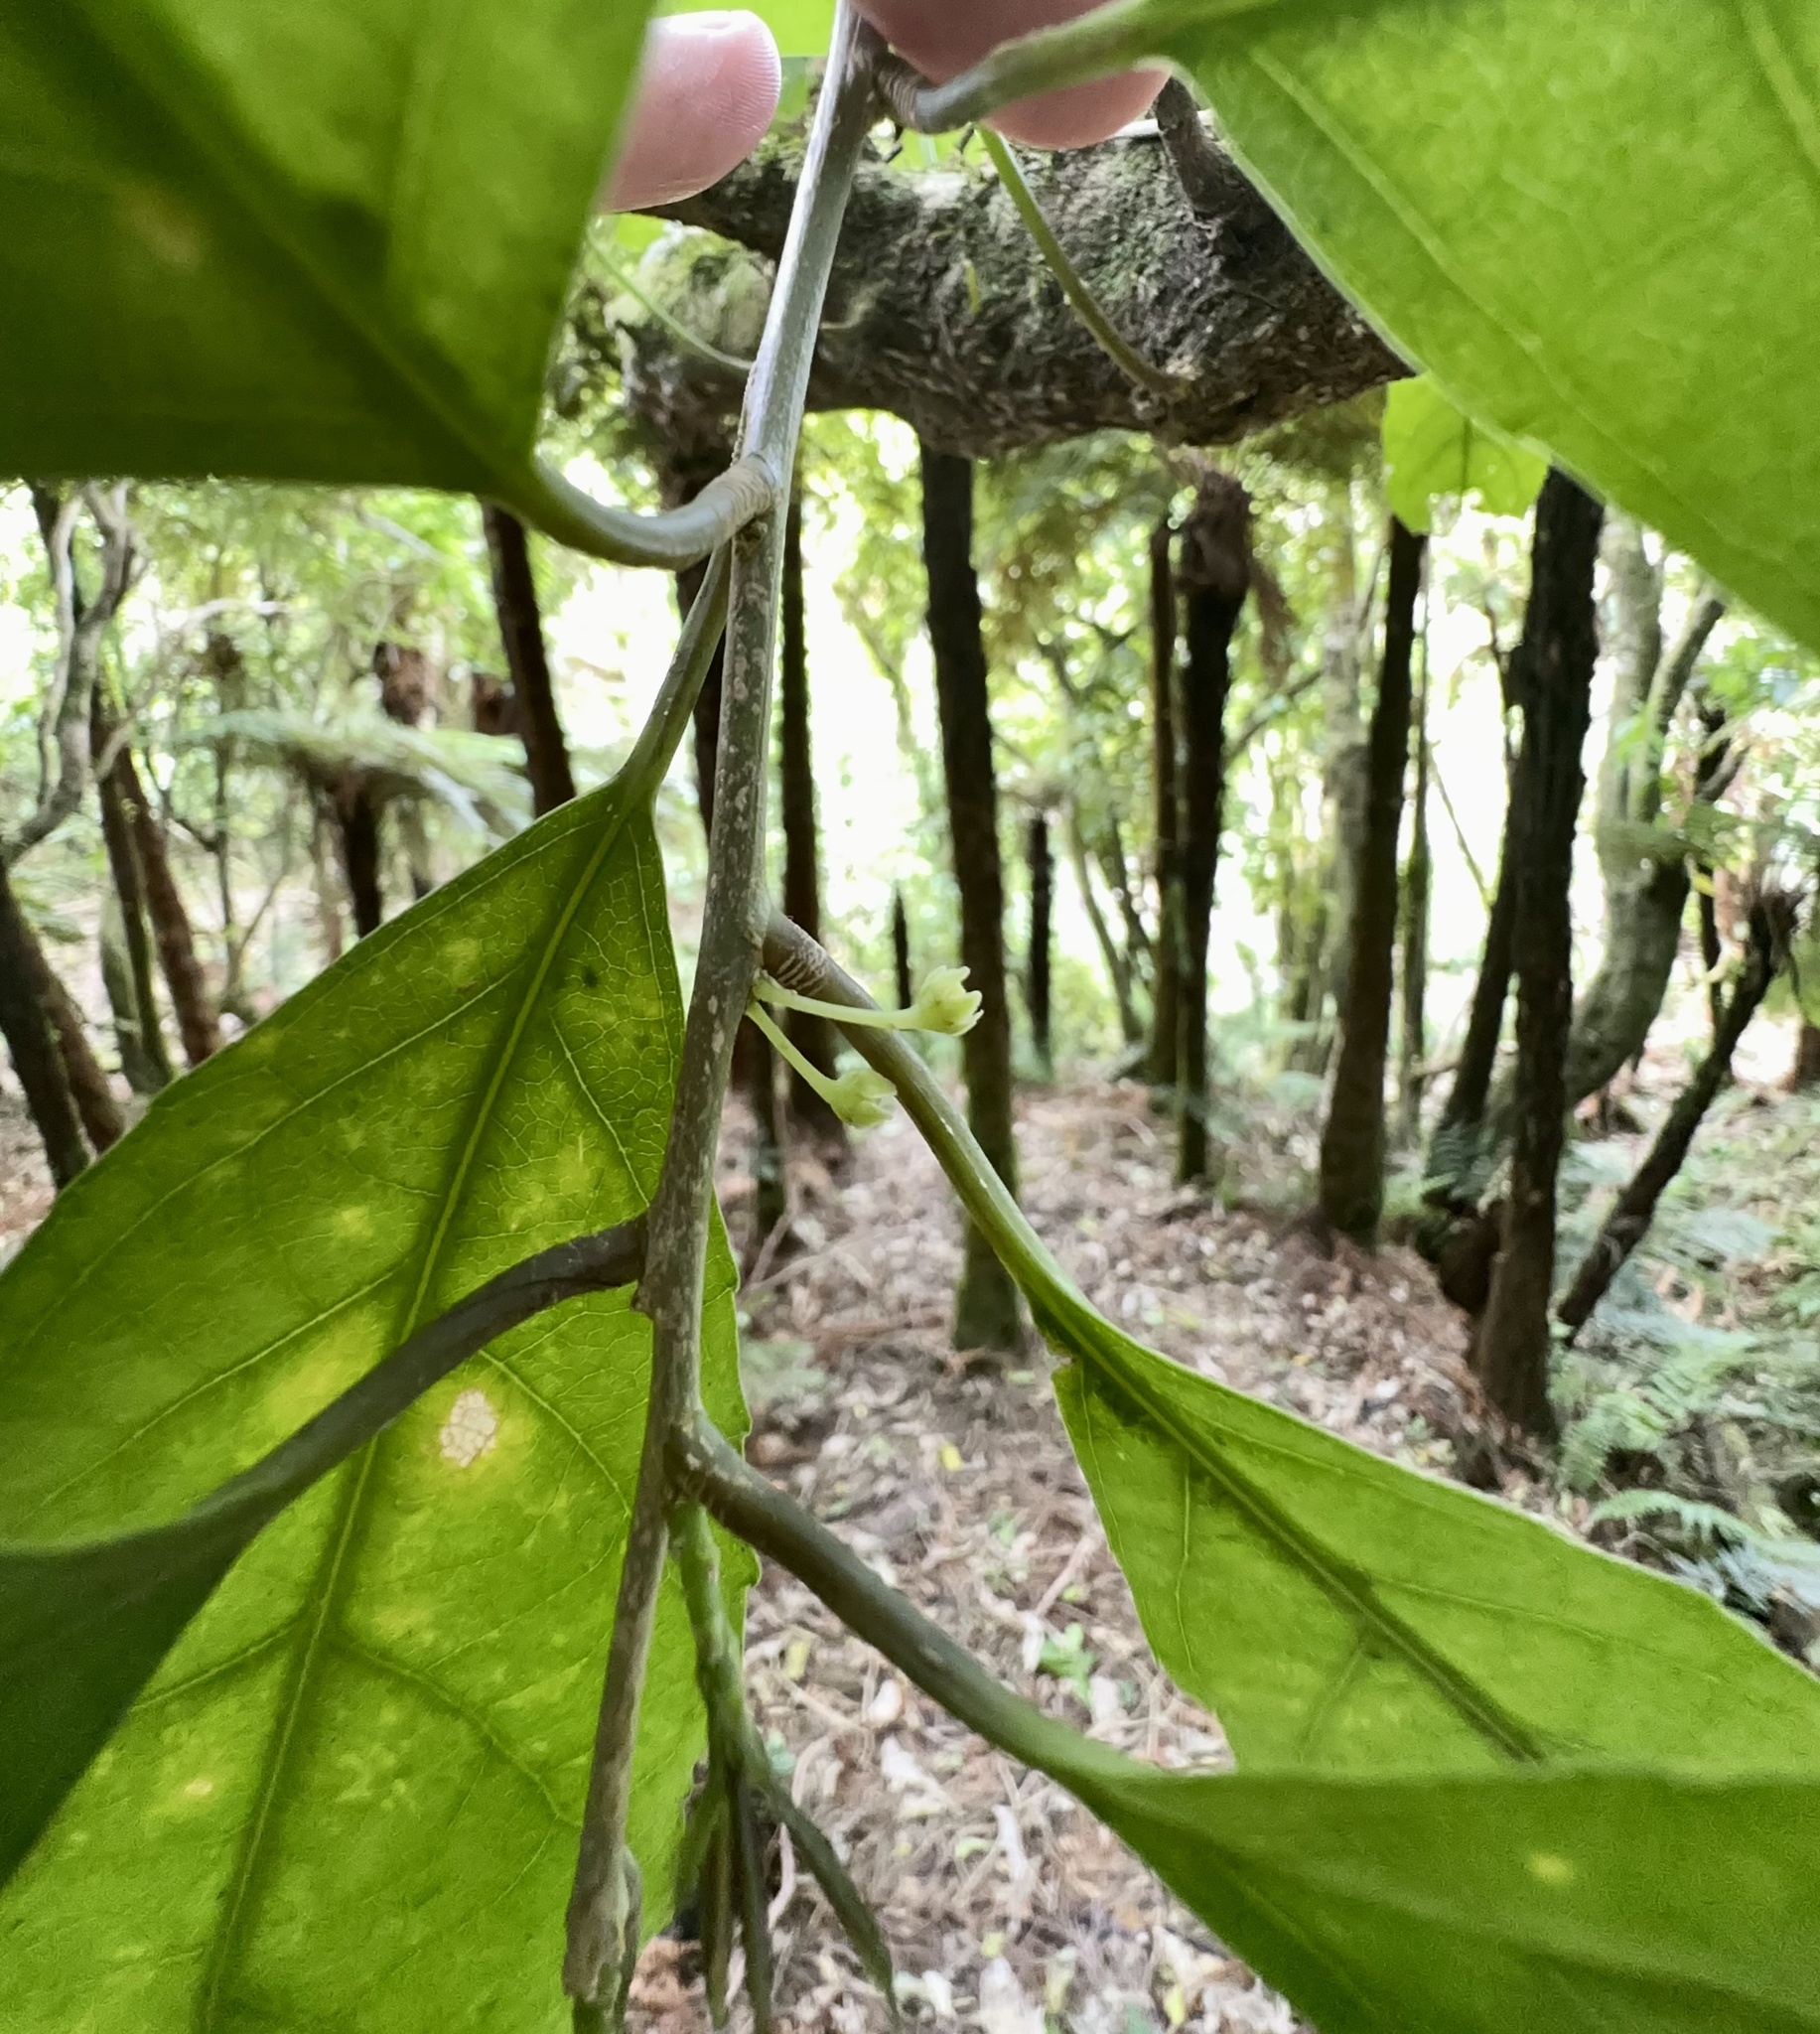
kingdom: Plantae
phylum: Tracheophyta
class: Magnoliopsida
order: Malpighiales
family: Violaceae
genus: Melicytus
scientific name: Melicytus ramiflorus
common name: Mahoe
